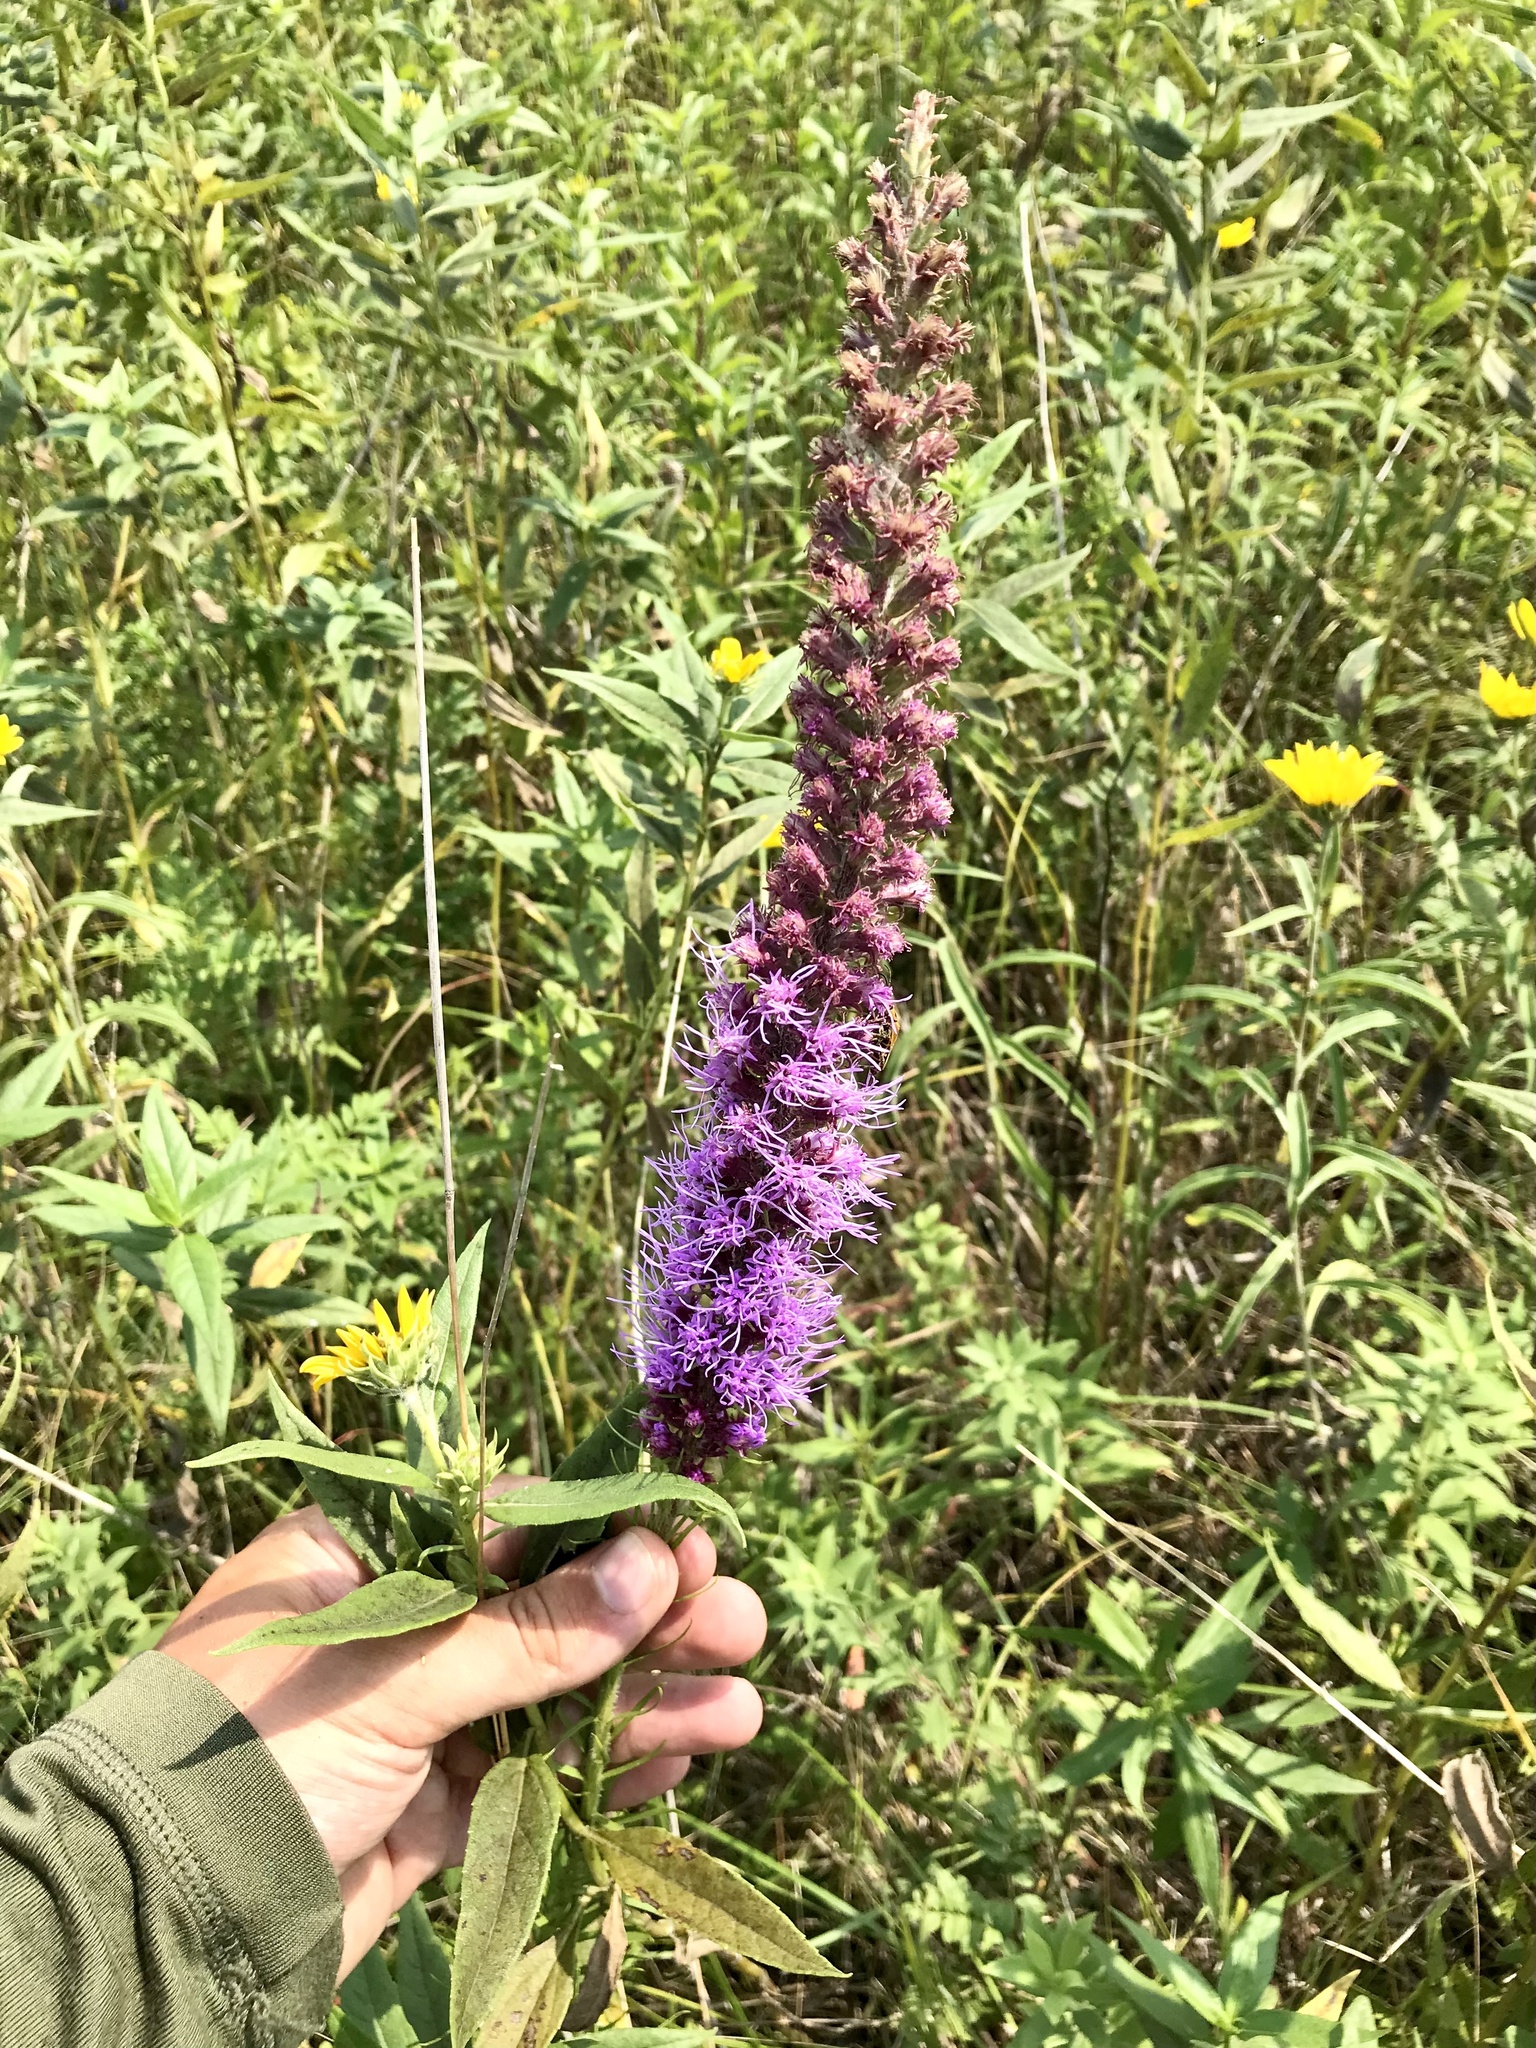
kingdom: Plantae
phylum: Tracheophyta
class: Magnoliopsida
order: Asterales
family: Asteraceae
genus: Liatris
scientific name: Liatris pycnostachya
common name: Cattail gayfeather
